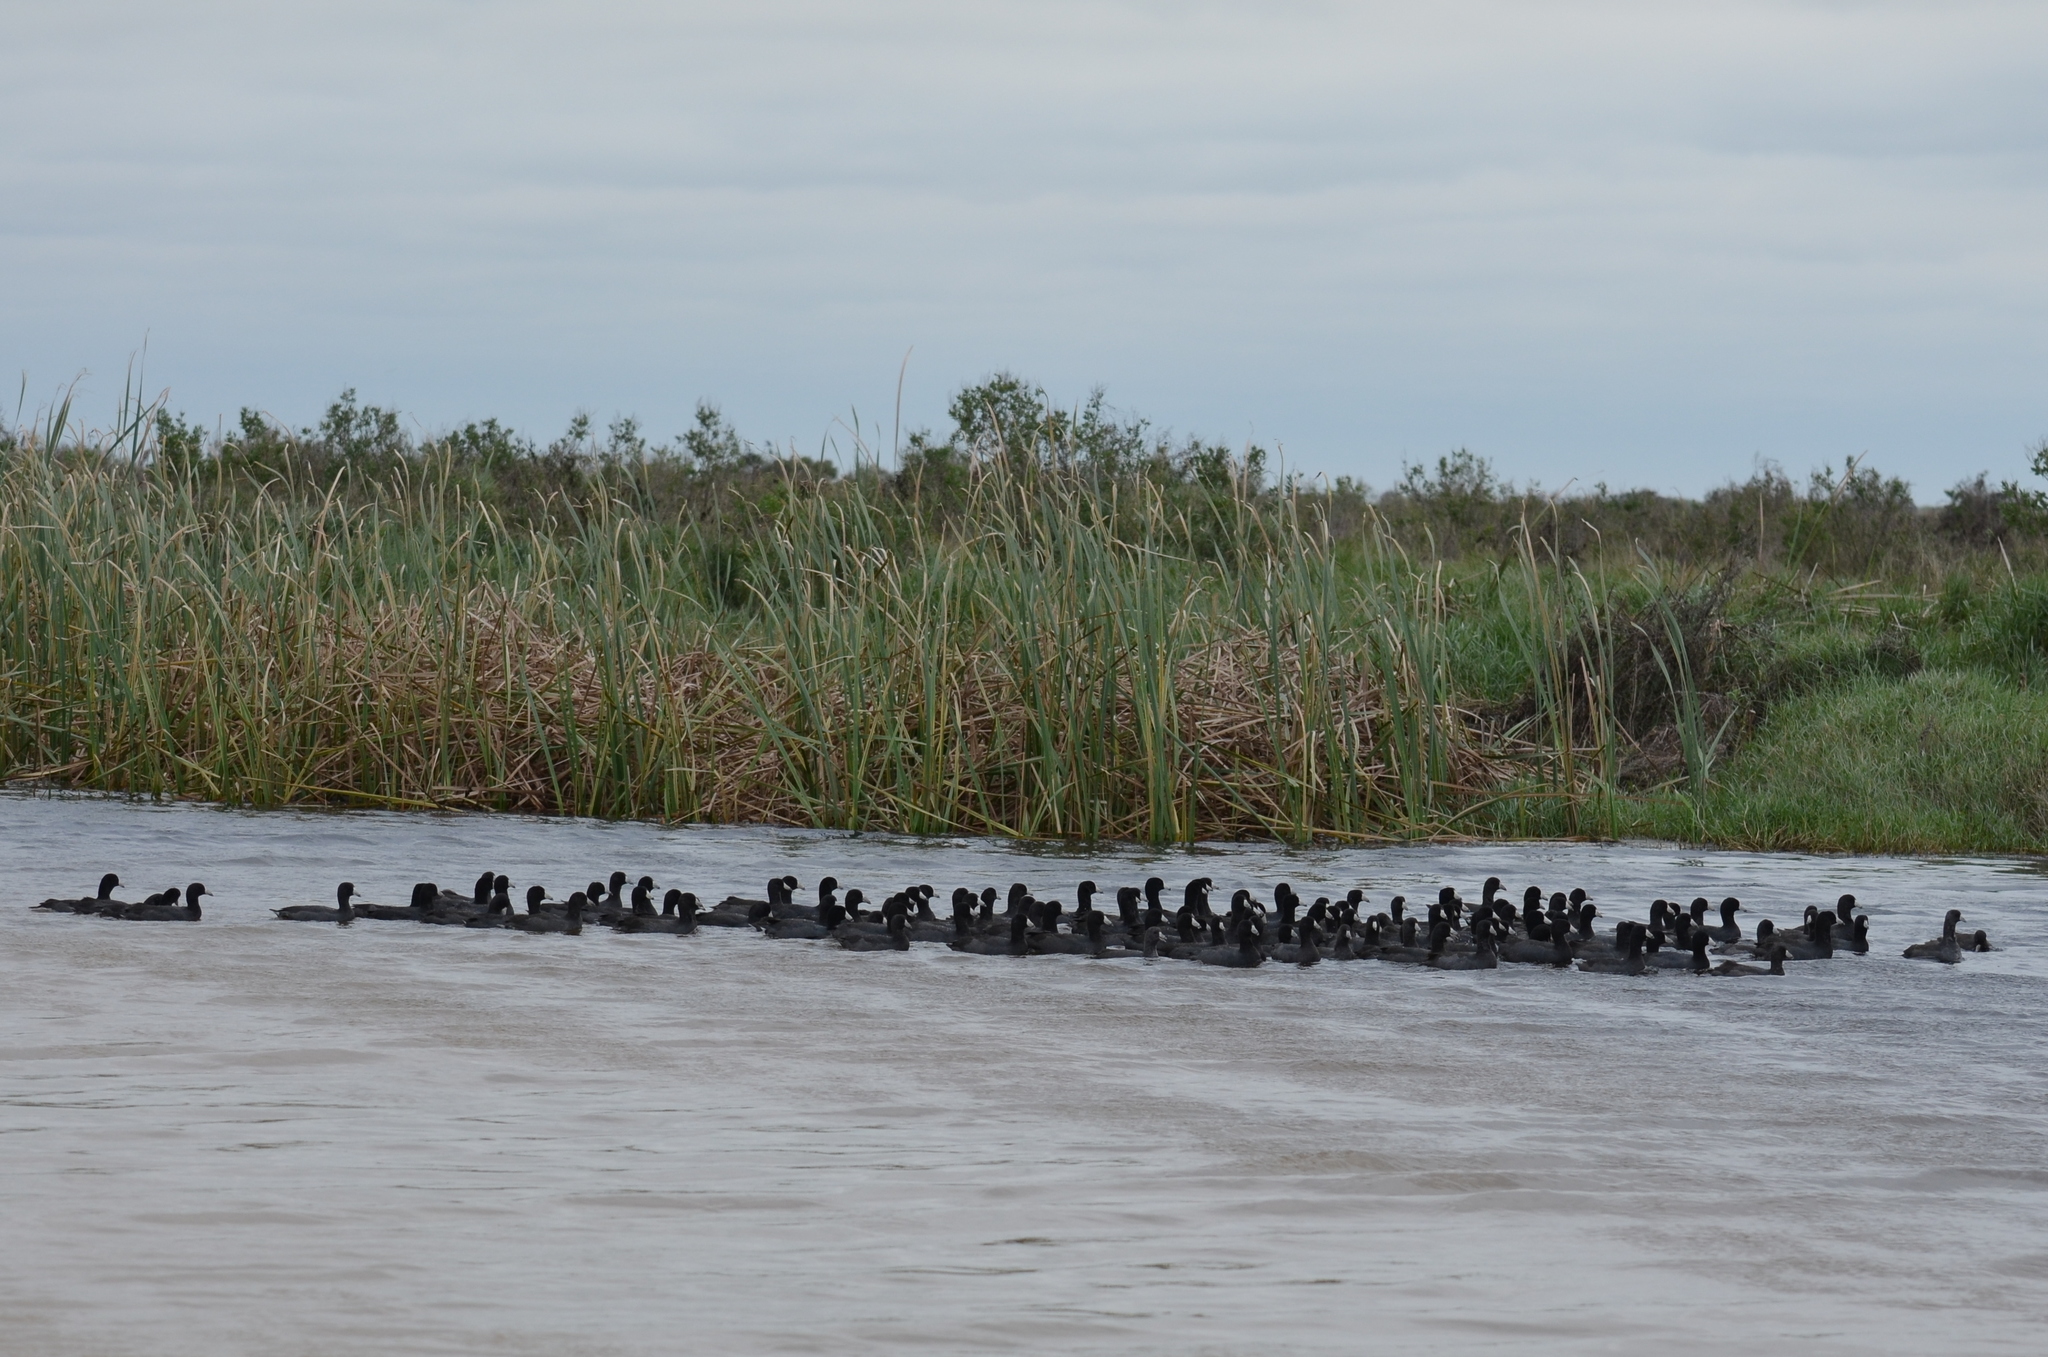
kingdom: Animalia
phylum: Chordata
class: Aves
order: Gruiformes
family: Rallidae
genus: Fulica
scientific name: Fulica americana
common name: American coot
